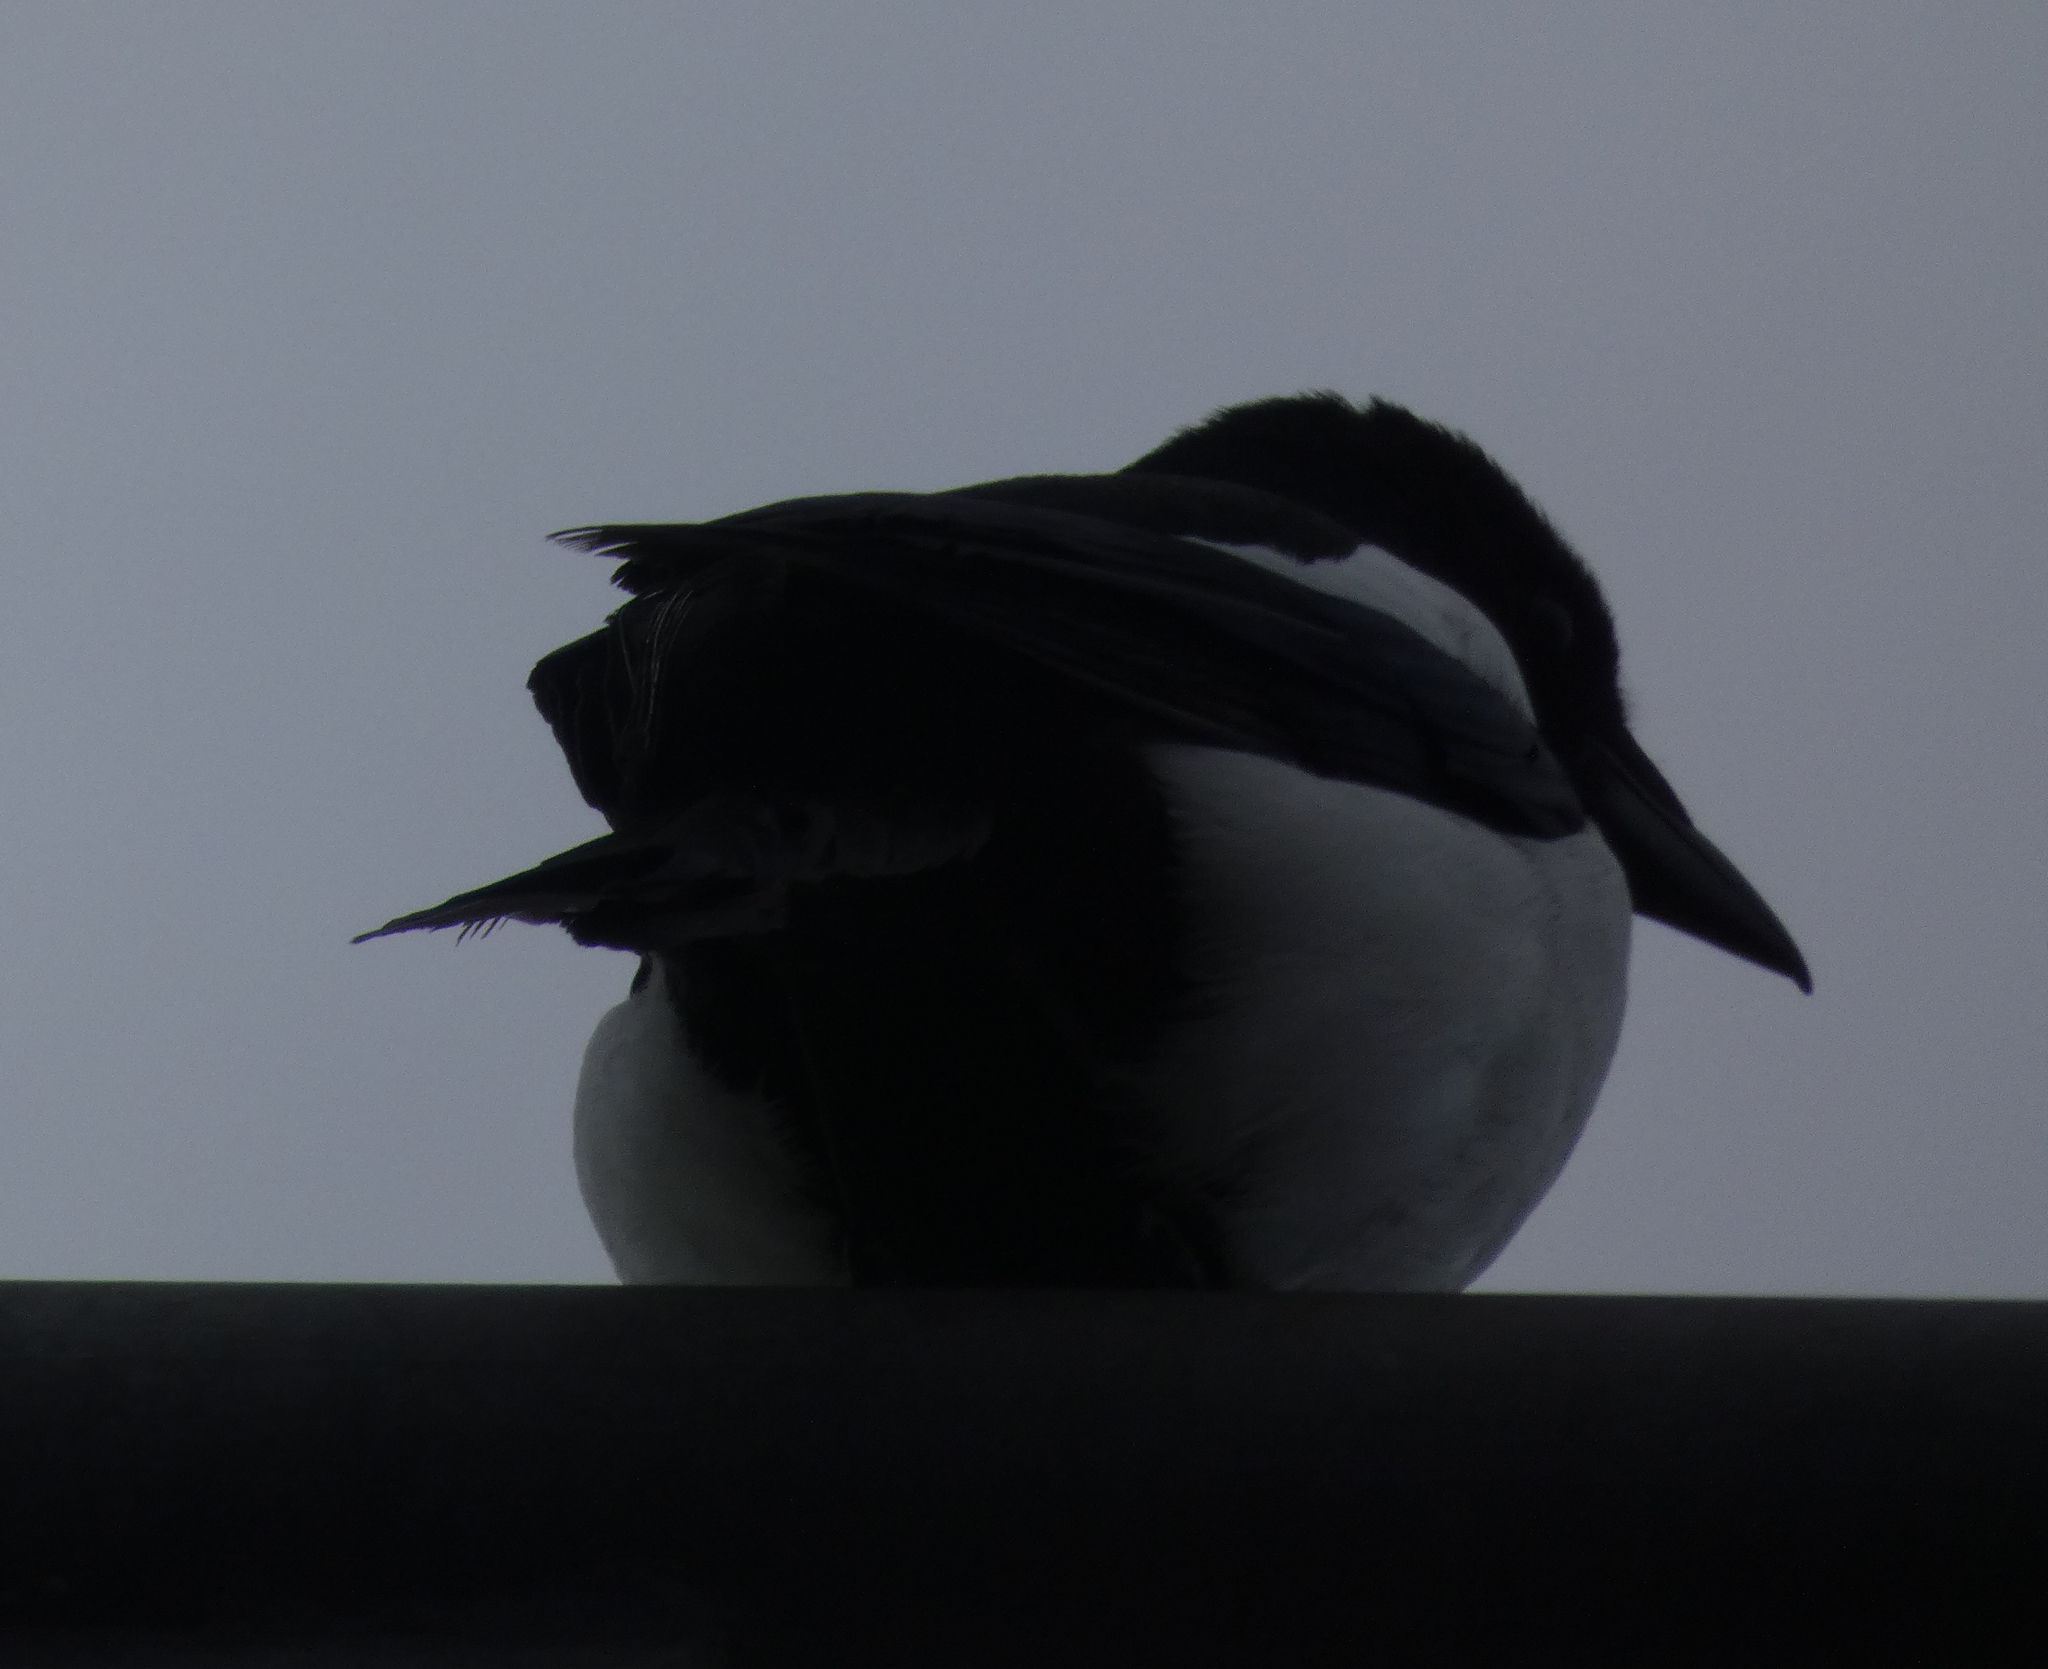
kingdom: Animalia
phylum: Chordata
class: Aves
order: Passeriformes
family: Corvidae
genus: Pica
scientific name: Pica pica
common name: Eurasian magpie
